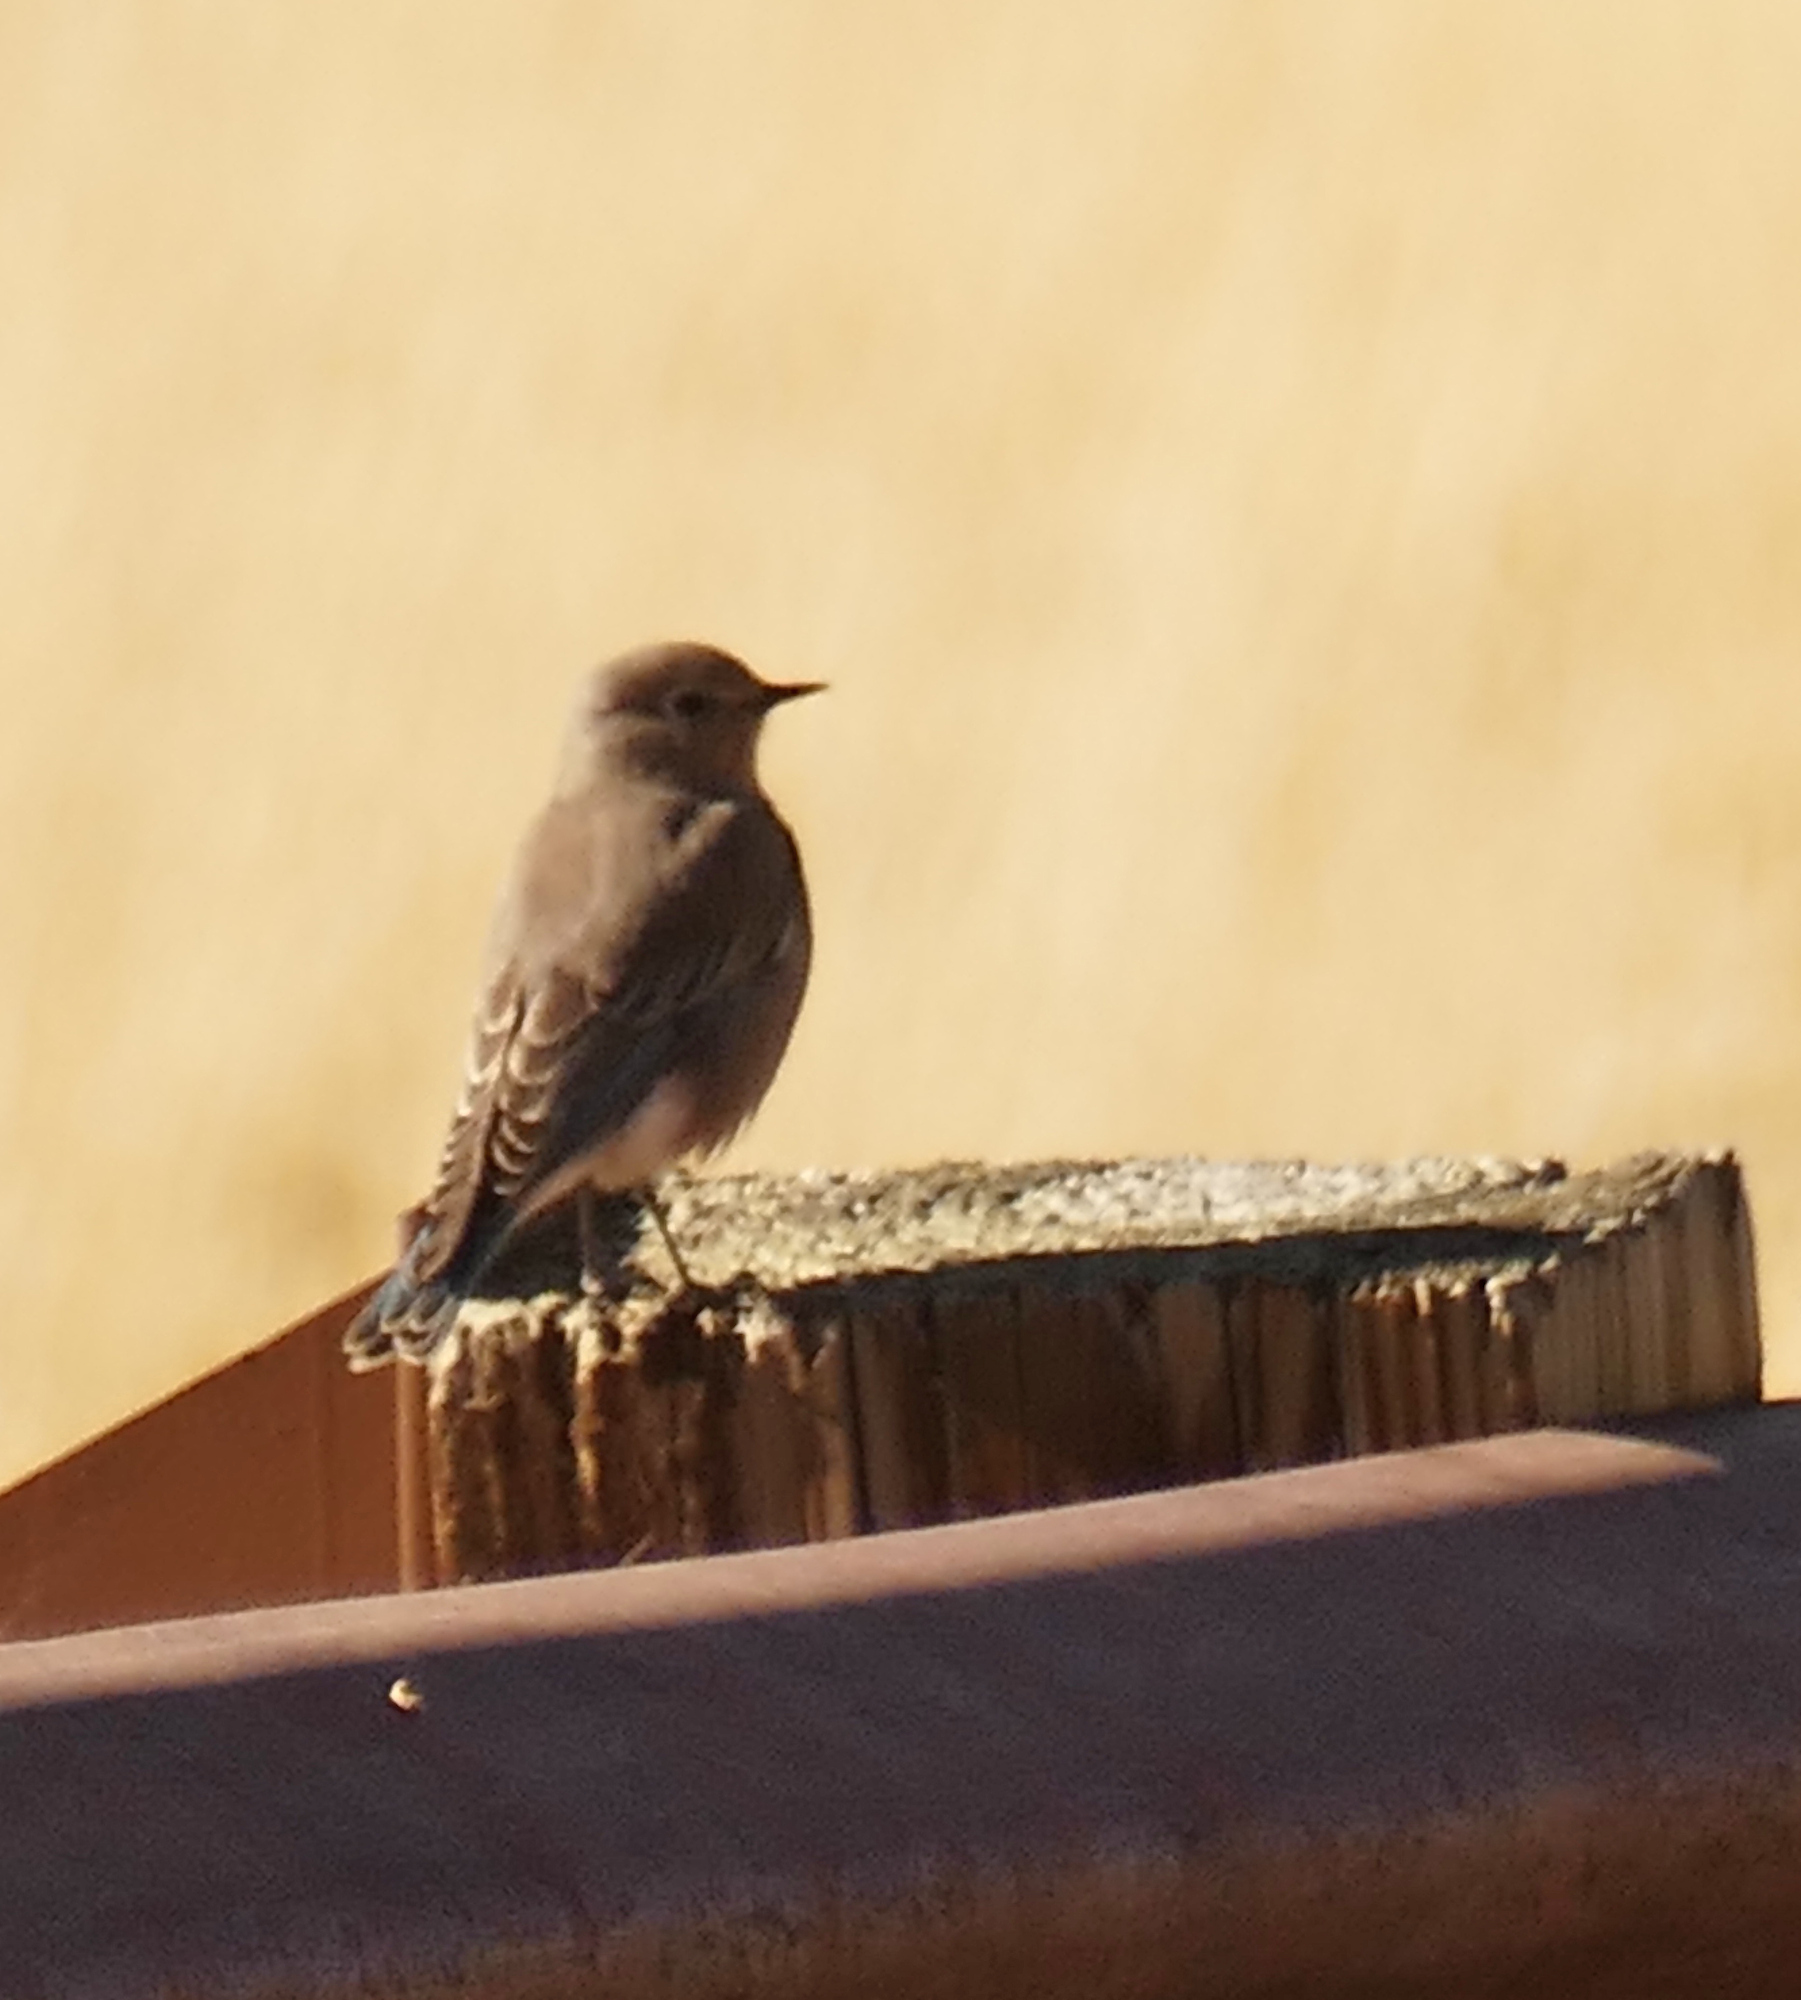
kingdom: Animalia
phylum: Chordata
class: Aves
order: Passeriformes
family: Turdidae
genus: Sialia
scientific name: Sialia currucoides
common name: Mountain bluebird
